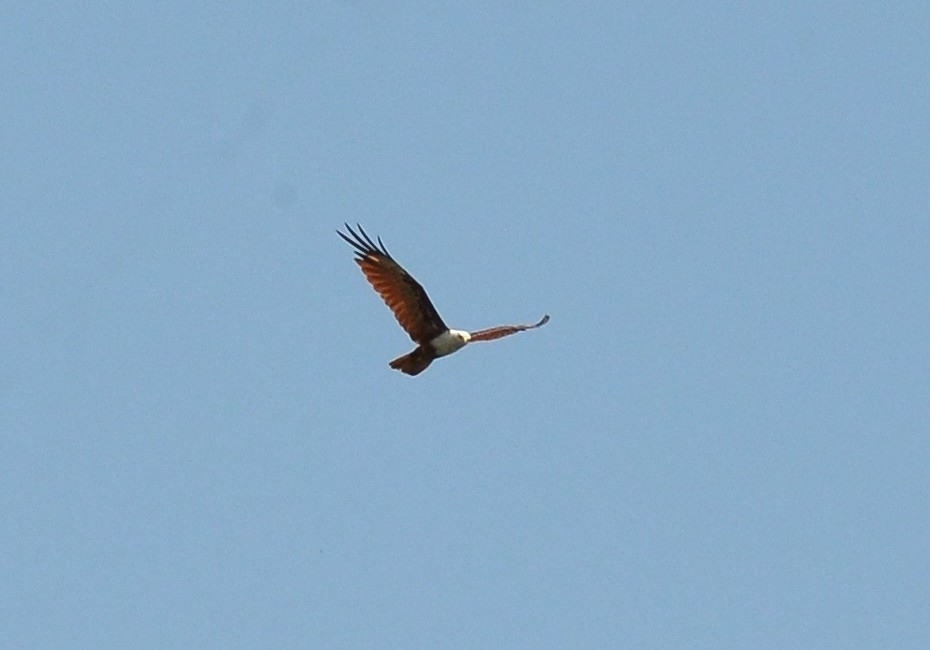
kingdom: Animalia
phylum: Chordata
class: Aves
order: Accipitriformes
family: Accipitridae
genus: Haliastur
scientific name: Haliastur indus
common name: Brahminy kite
